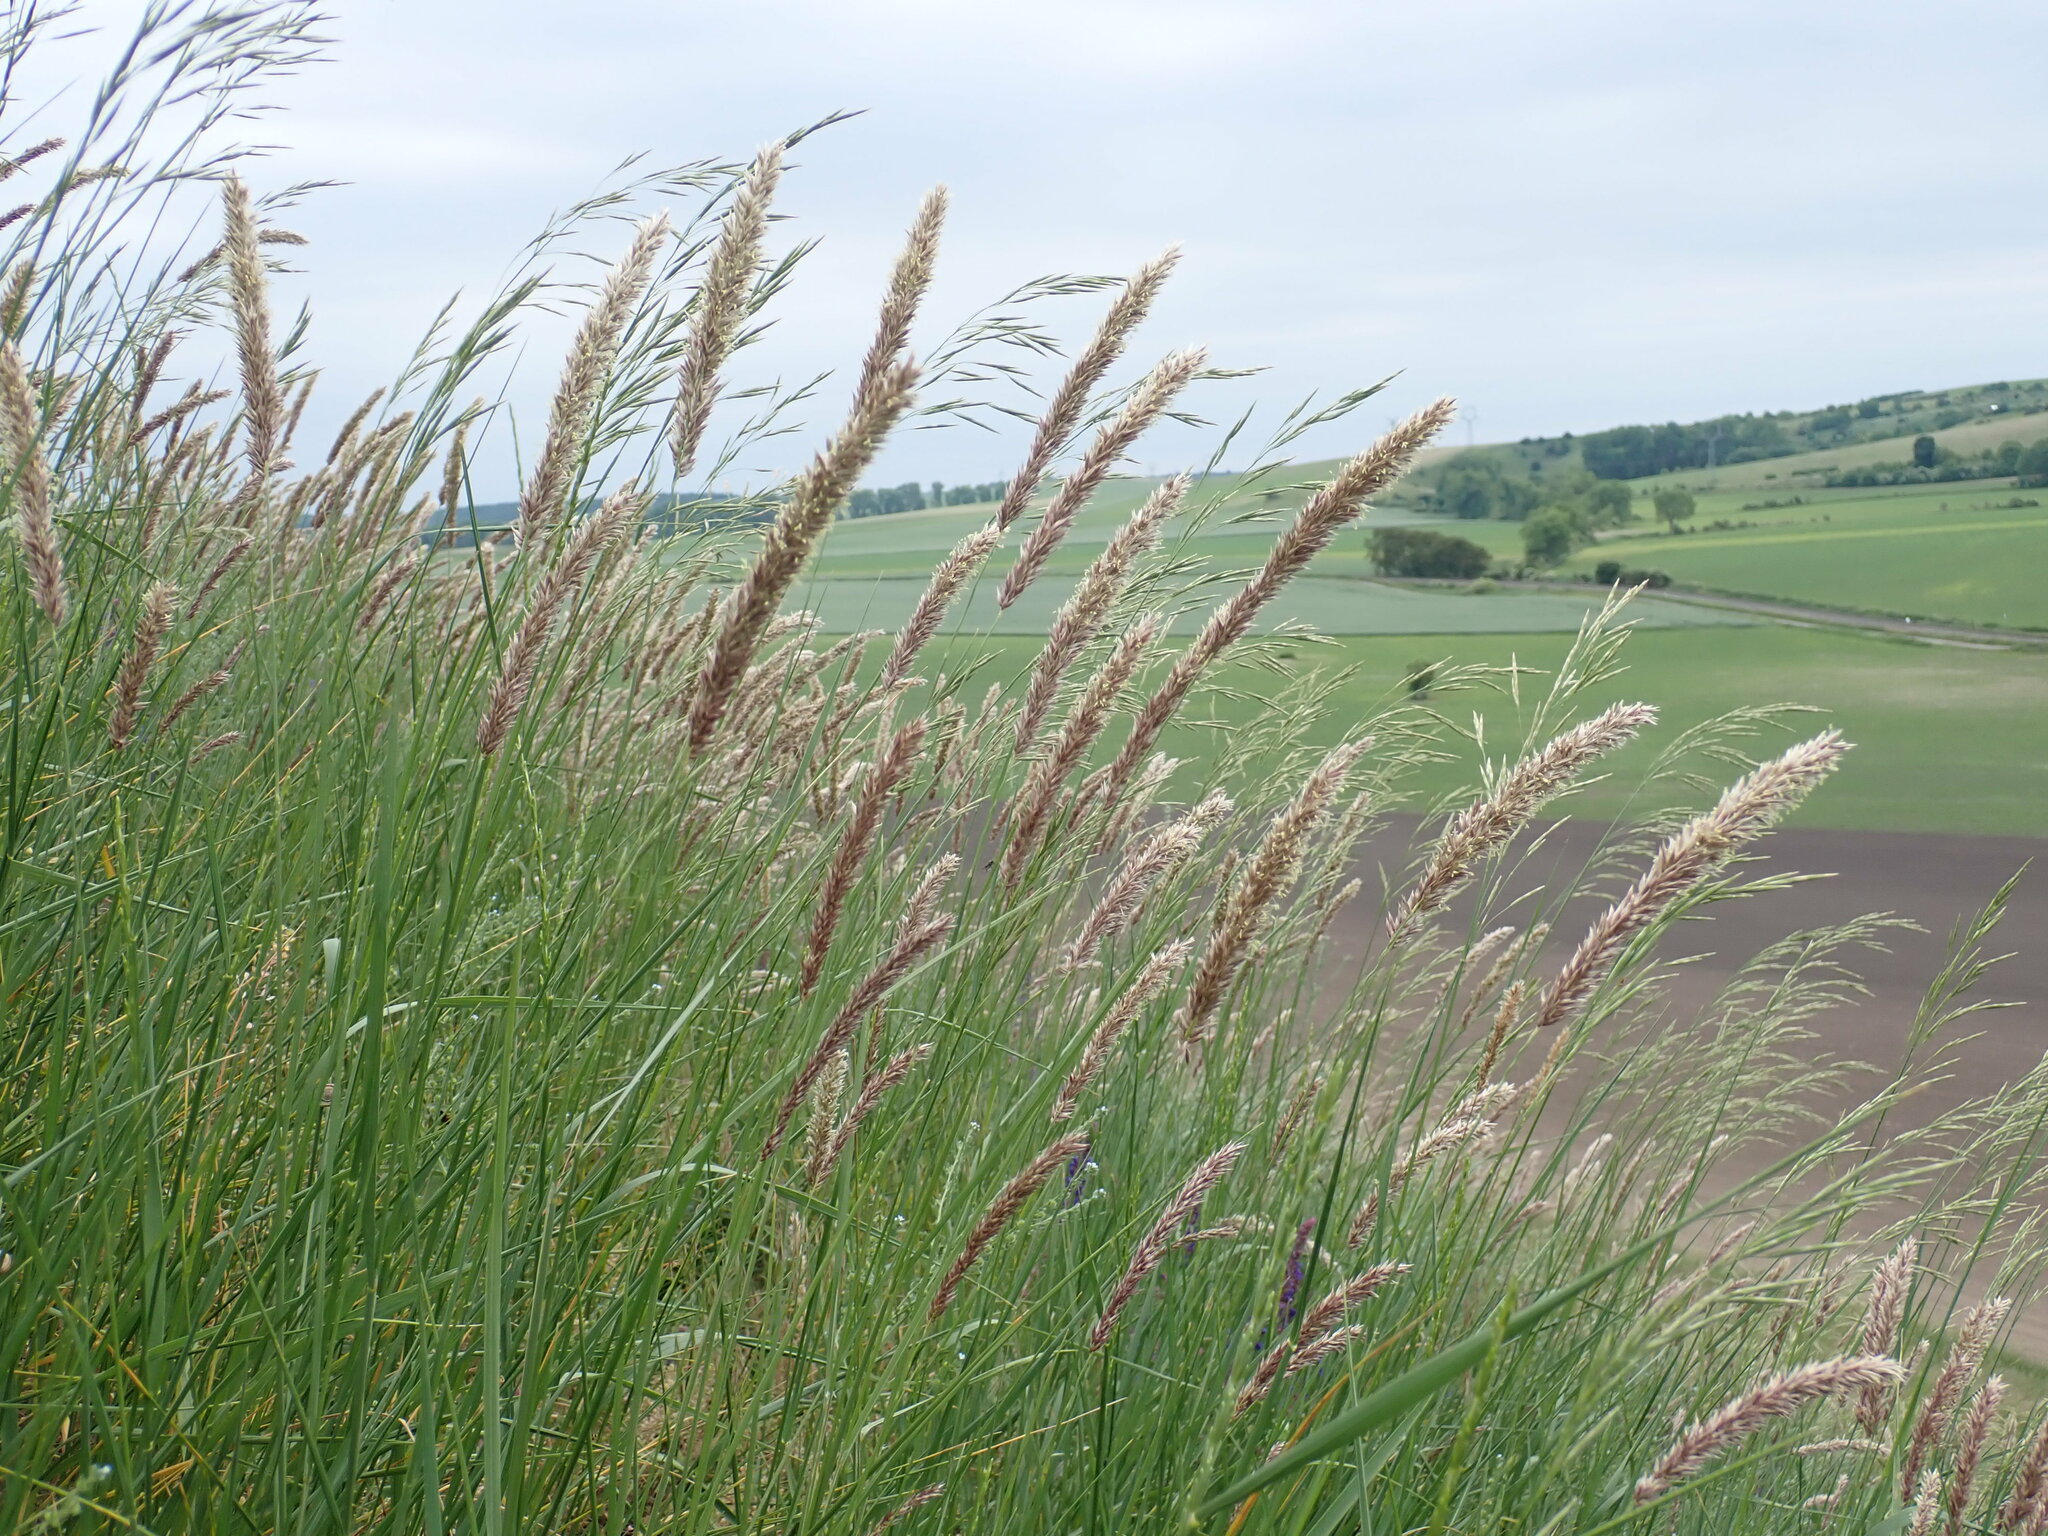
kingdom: Plantae
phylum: Tracheophyta
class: Liliopsida
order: Poales
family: Poaceae
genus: Melica
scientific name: Melica transsilvanica
